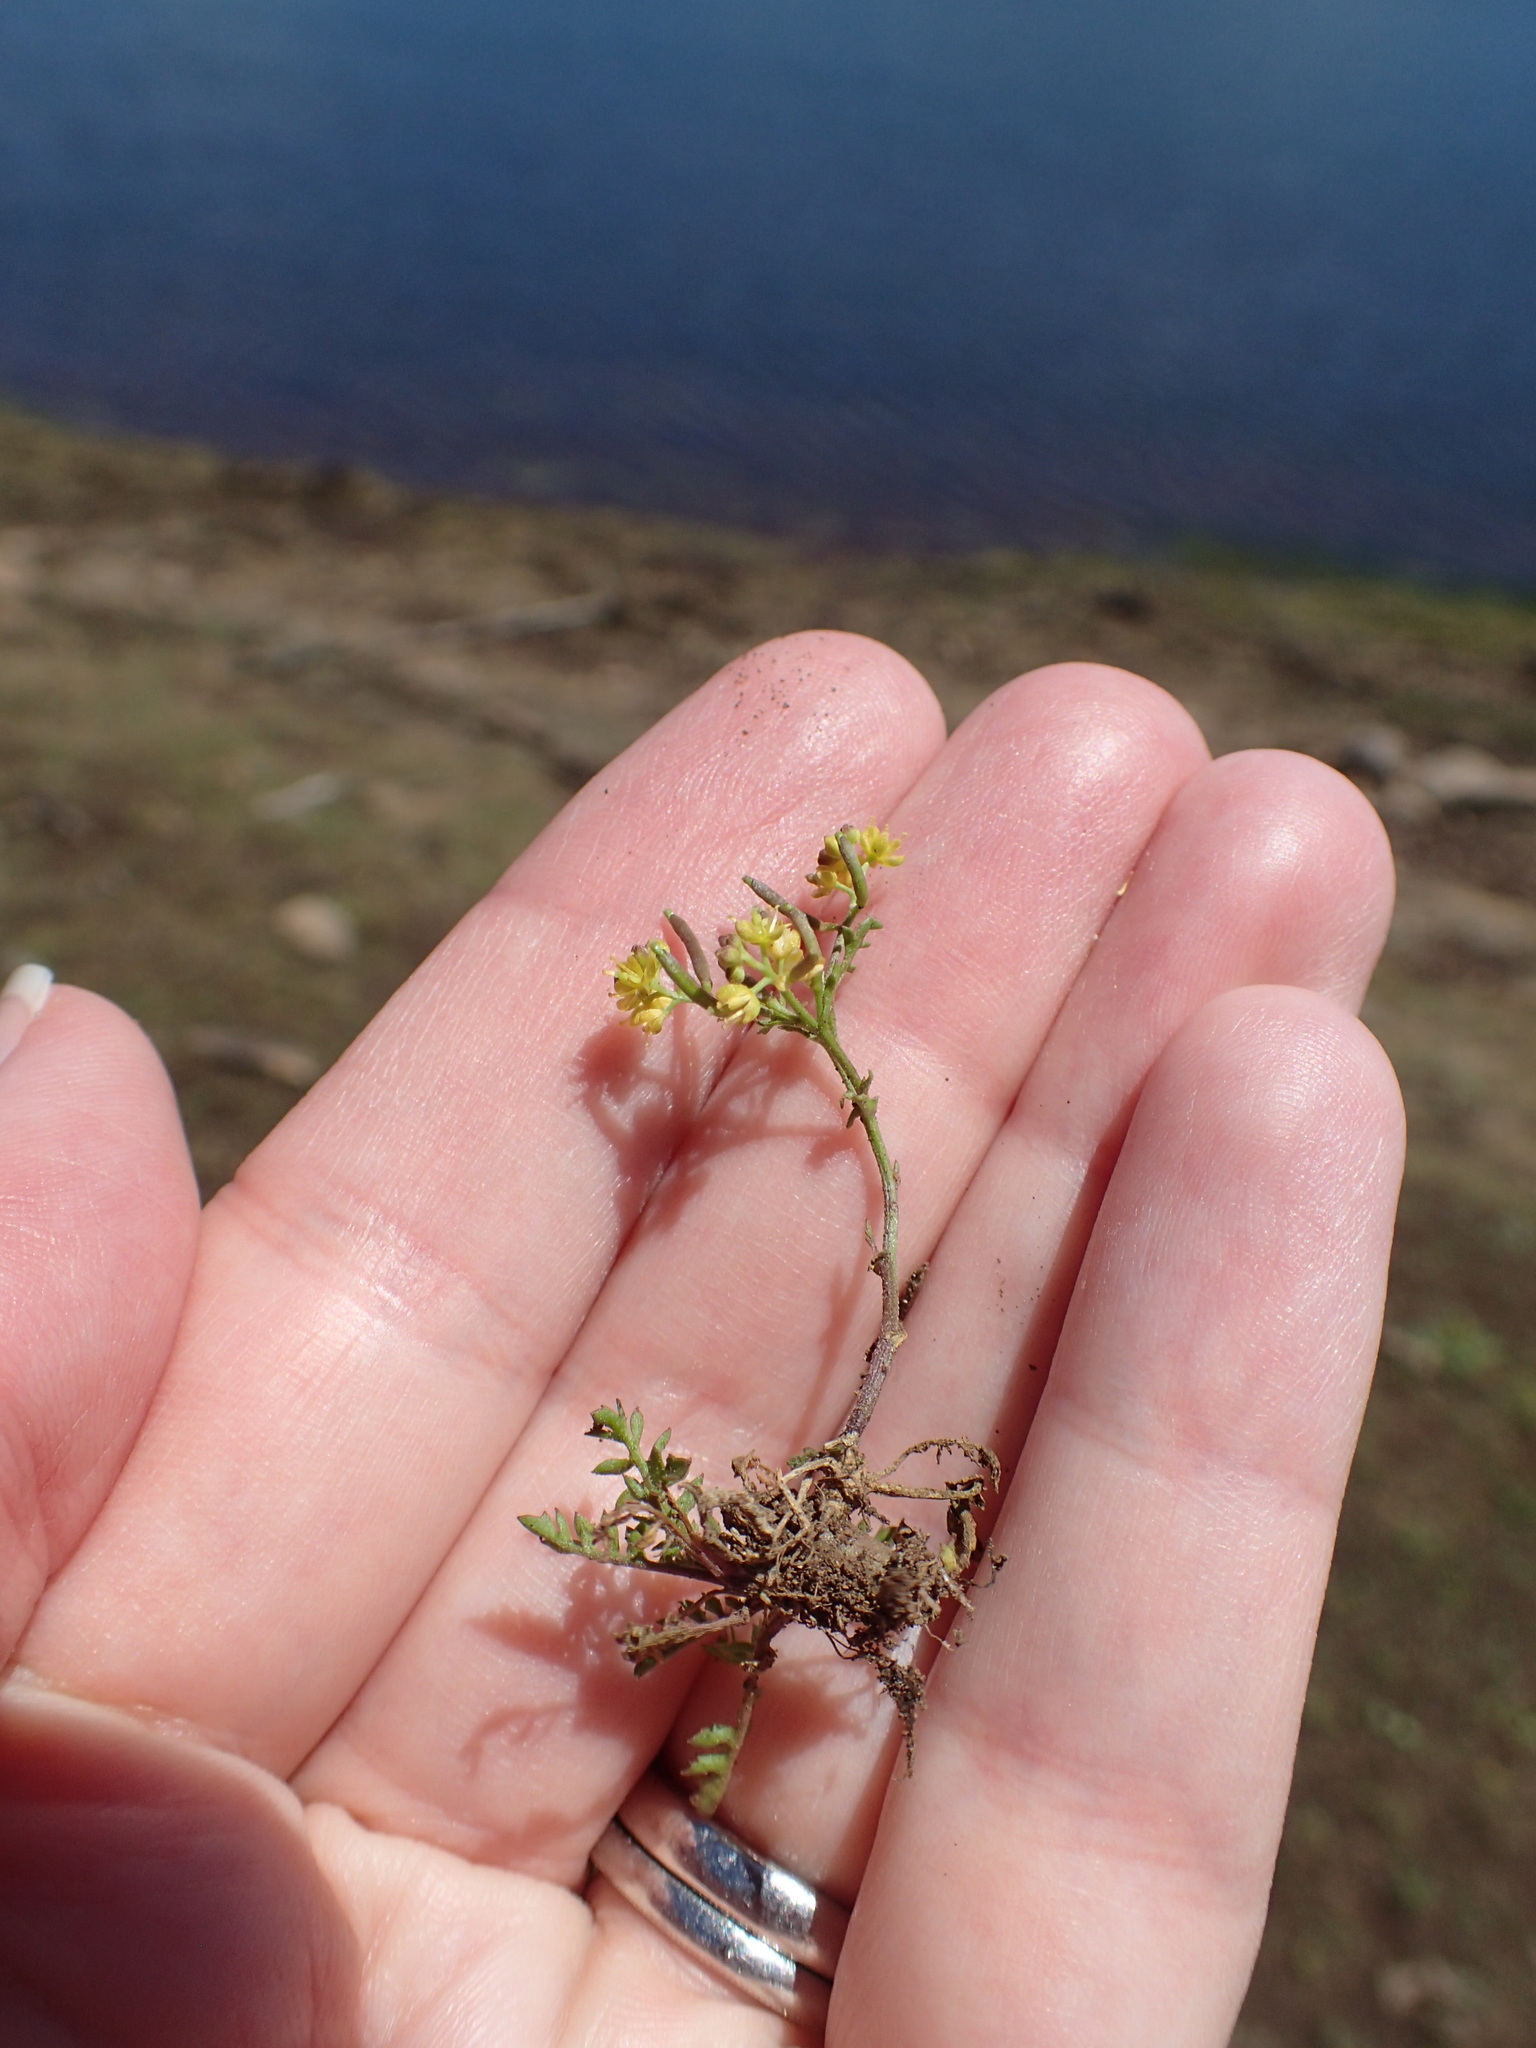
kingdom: Plantae
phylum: Tracheophyta
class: Magnoliopsida
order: Brassicales
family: Brassicaceae
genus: Rorippa
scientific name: Rorippa curvisiliqua
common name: Curve-pod yellow cress
